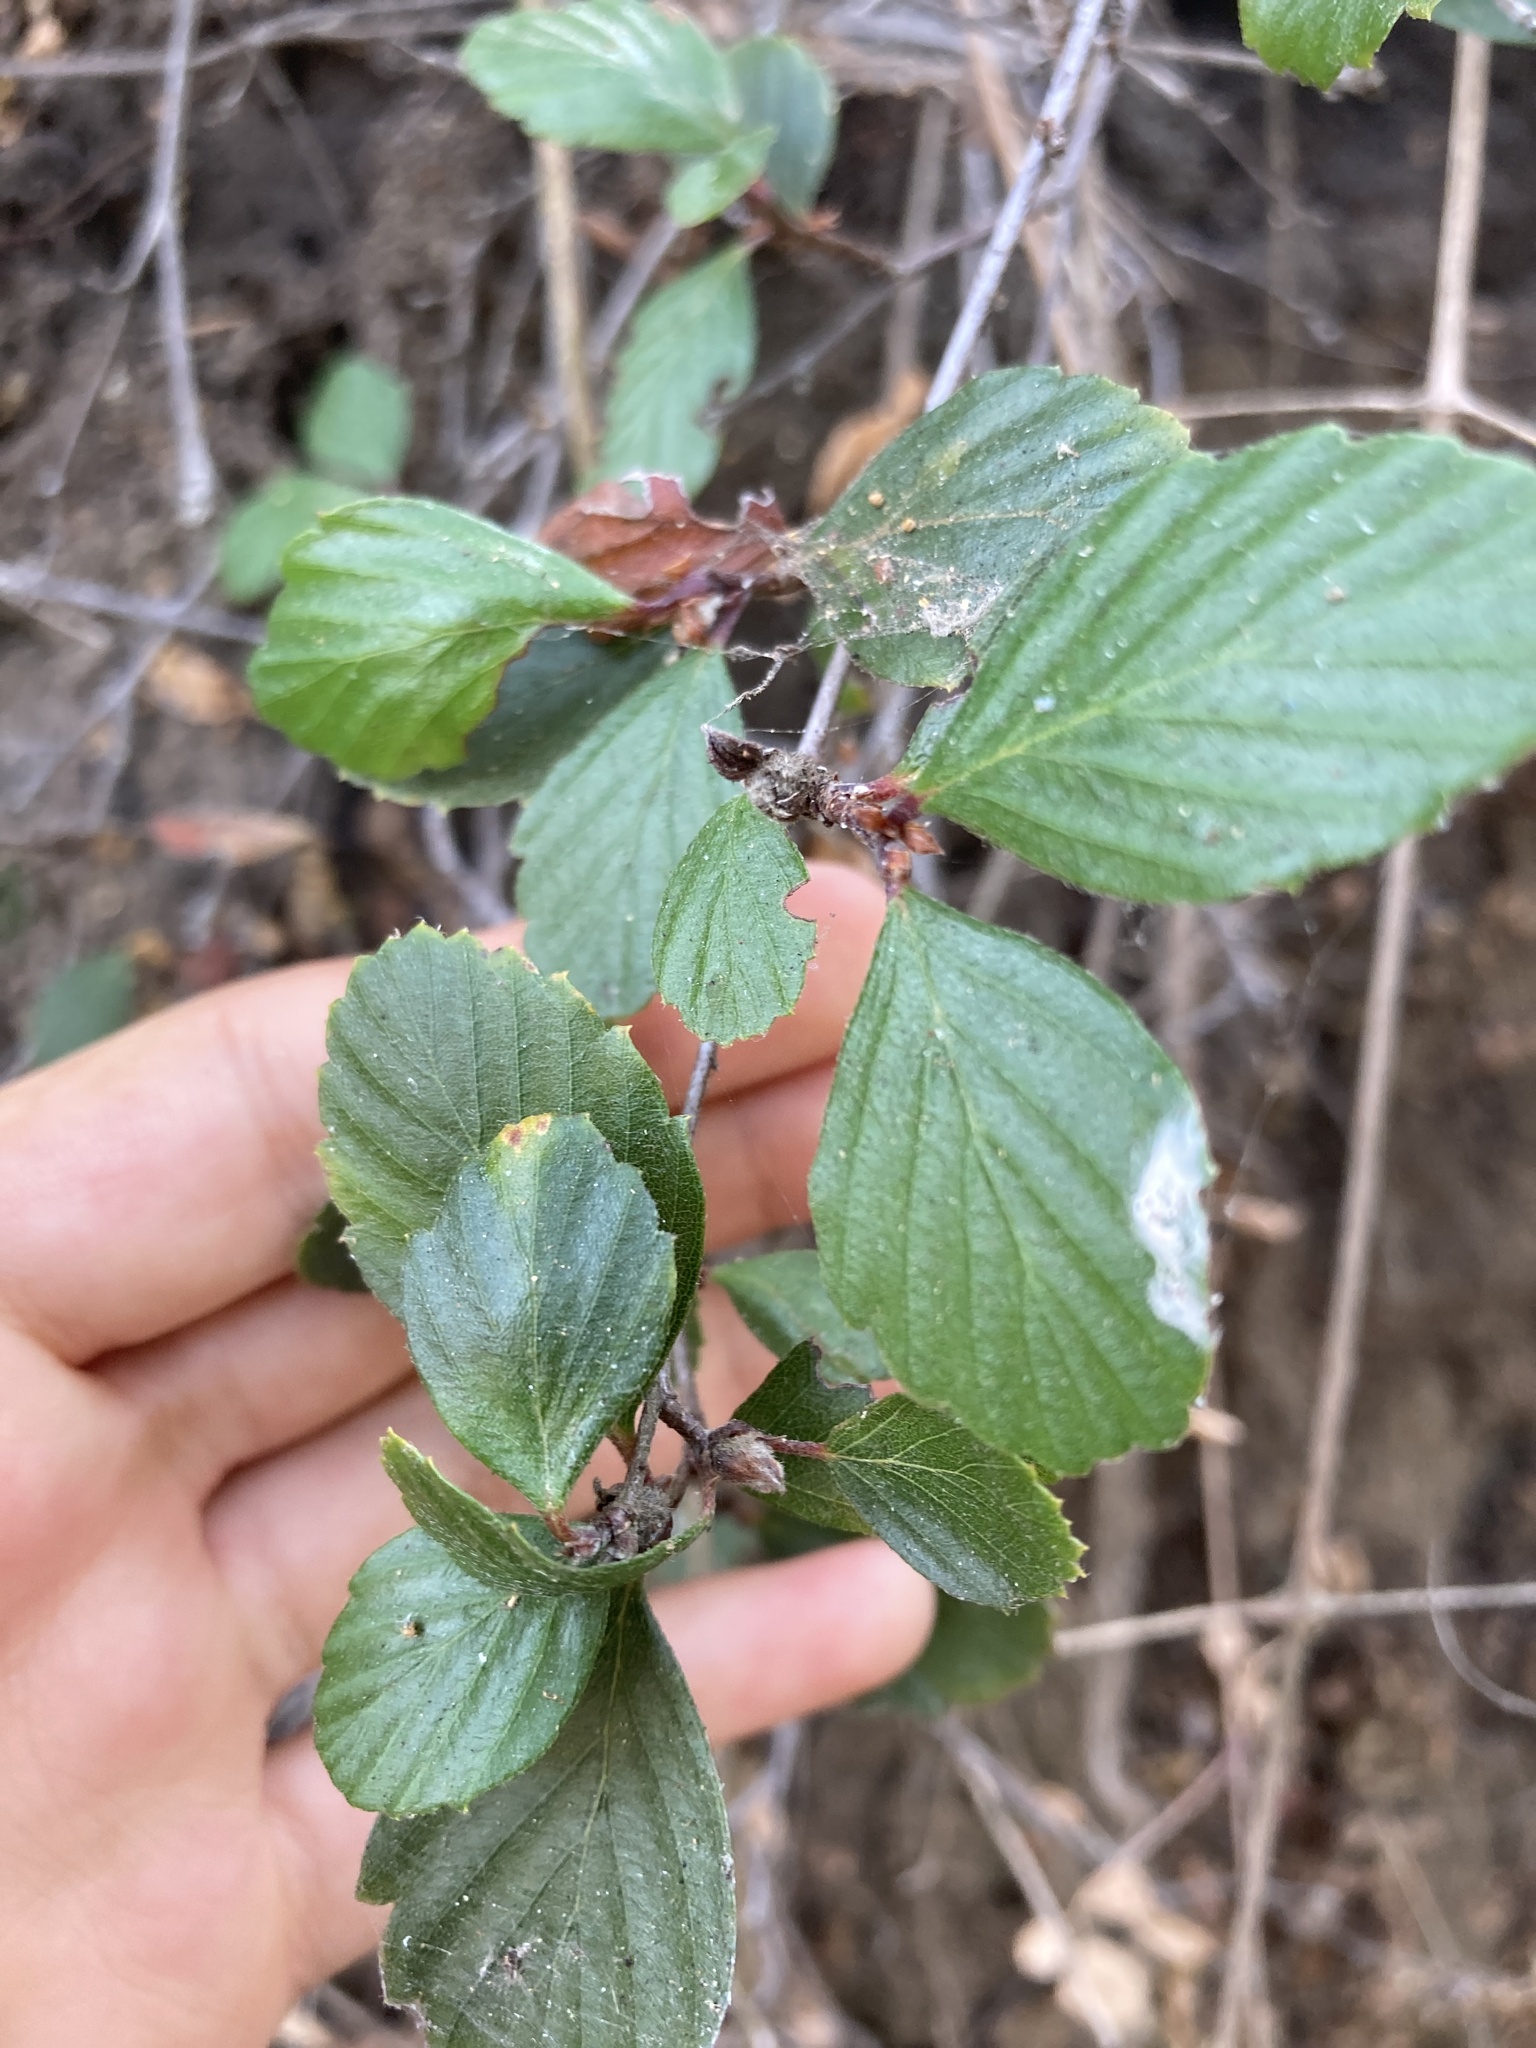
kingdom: Plantae
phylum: Tracheophyta
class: Magnoliopsida
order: Rosales
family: Rosaceae
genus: Cercocarpus
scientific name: Cercocarpus montanus
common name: Alder-leaf cercocarpus
